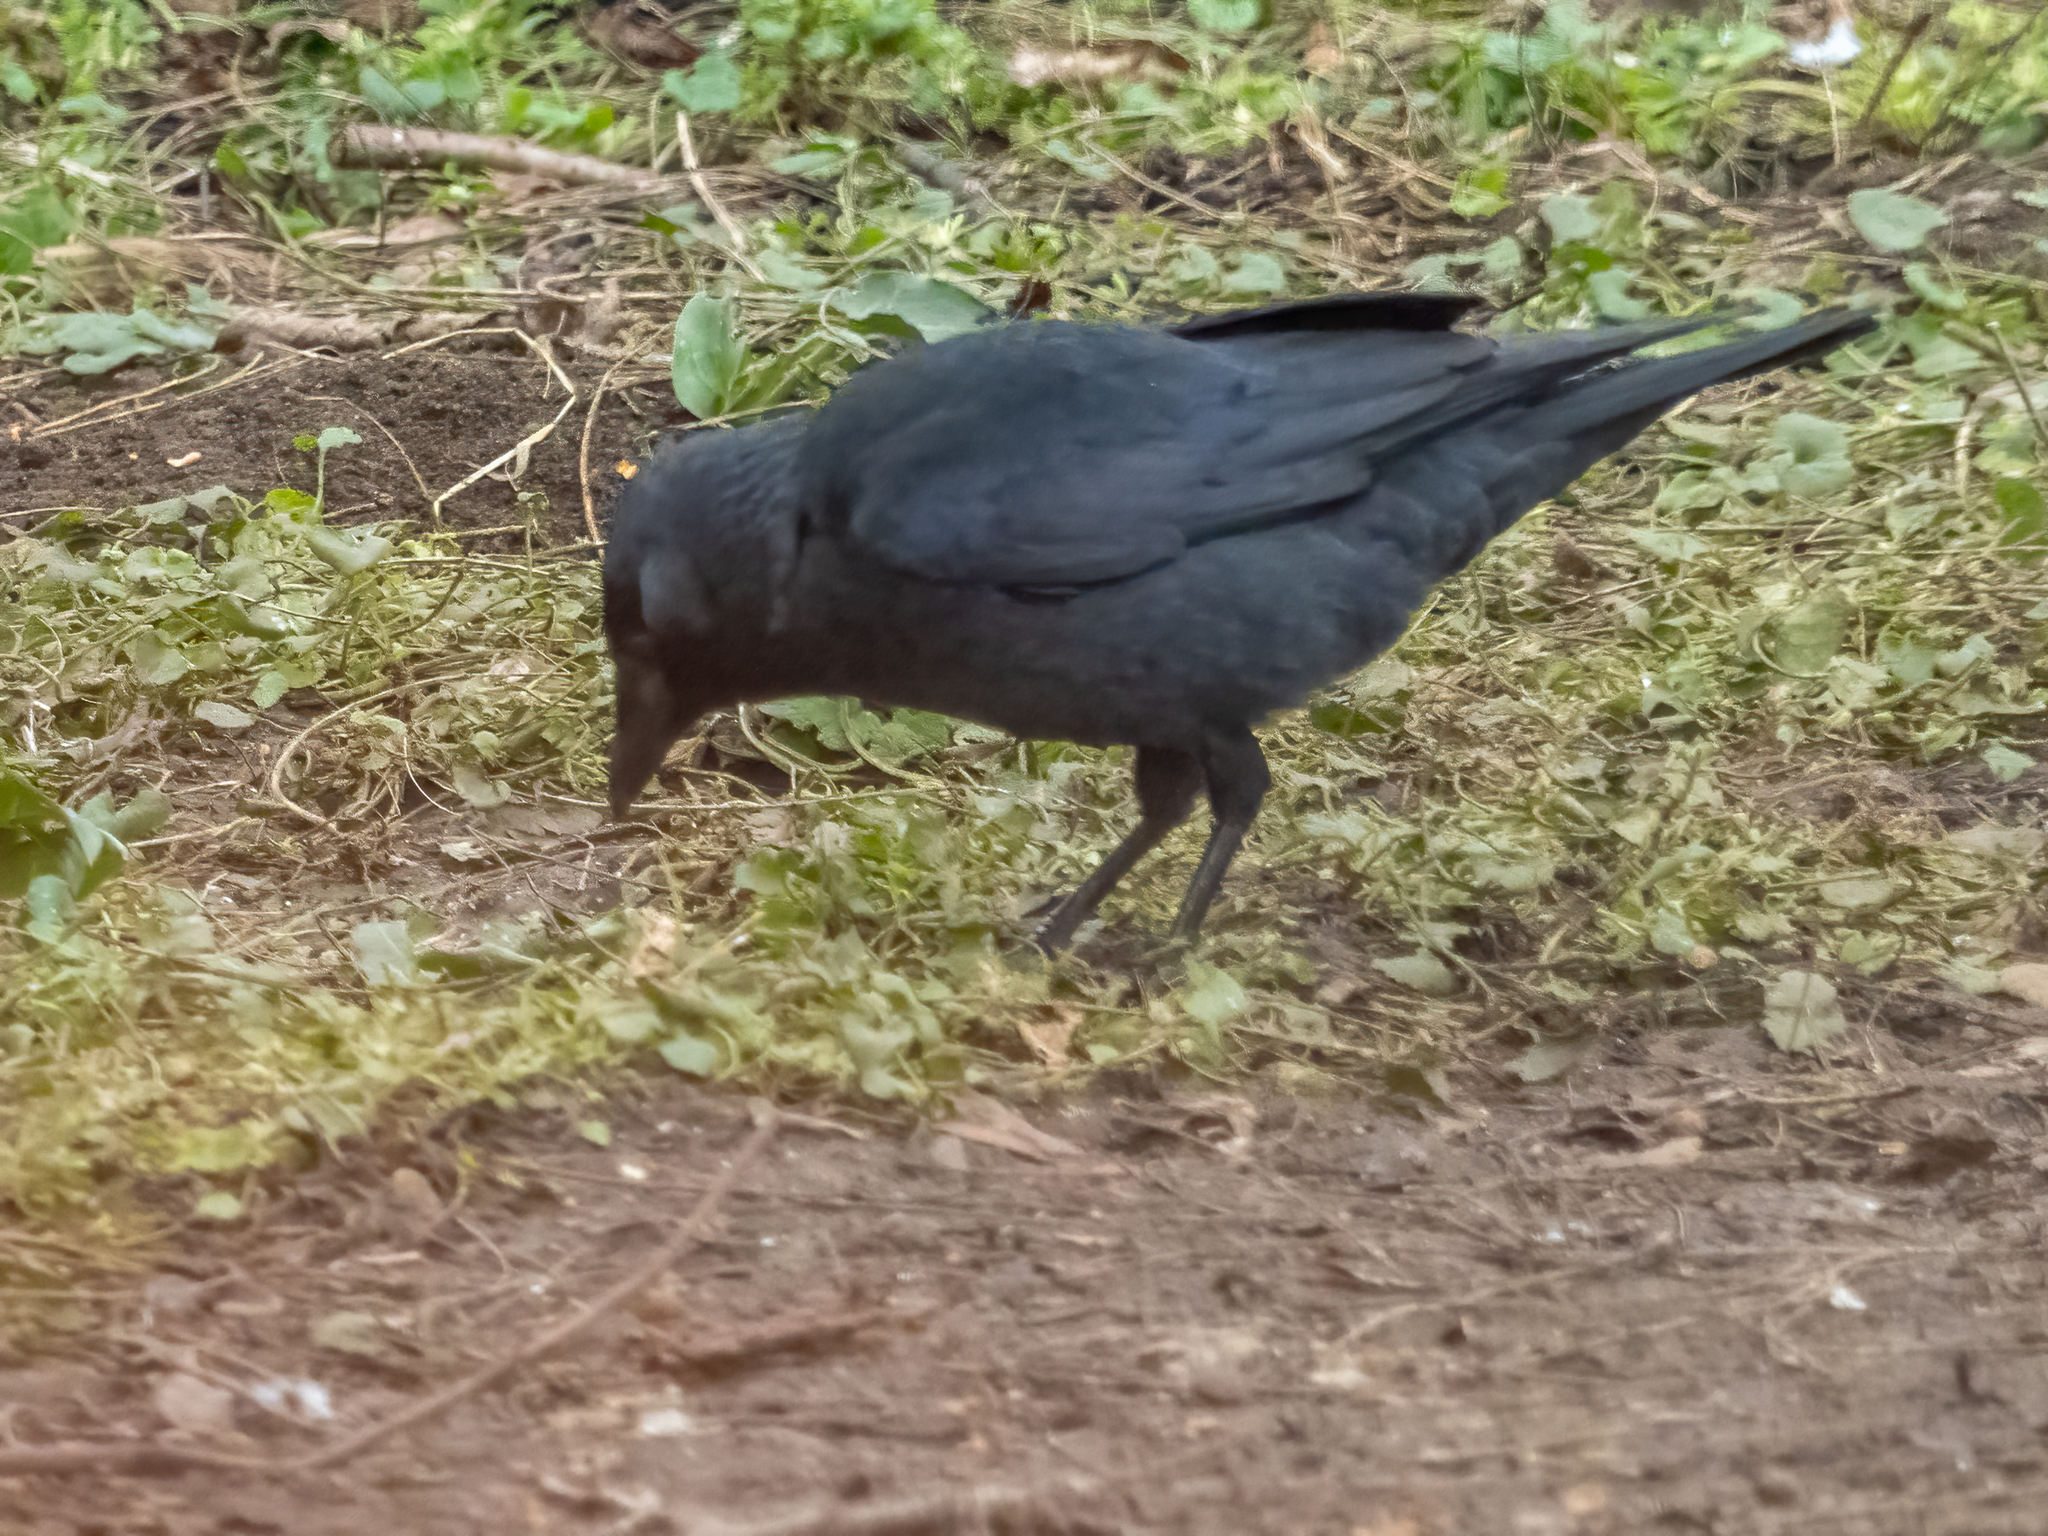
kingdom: Animalia
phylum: Chordata
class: Aves
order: Passeriformes
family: Corvidae
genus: Coloeus
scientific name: Coloeus monedula
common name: Western jackdaw
